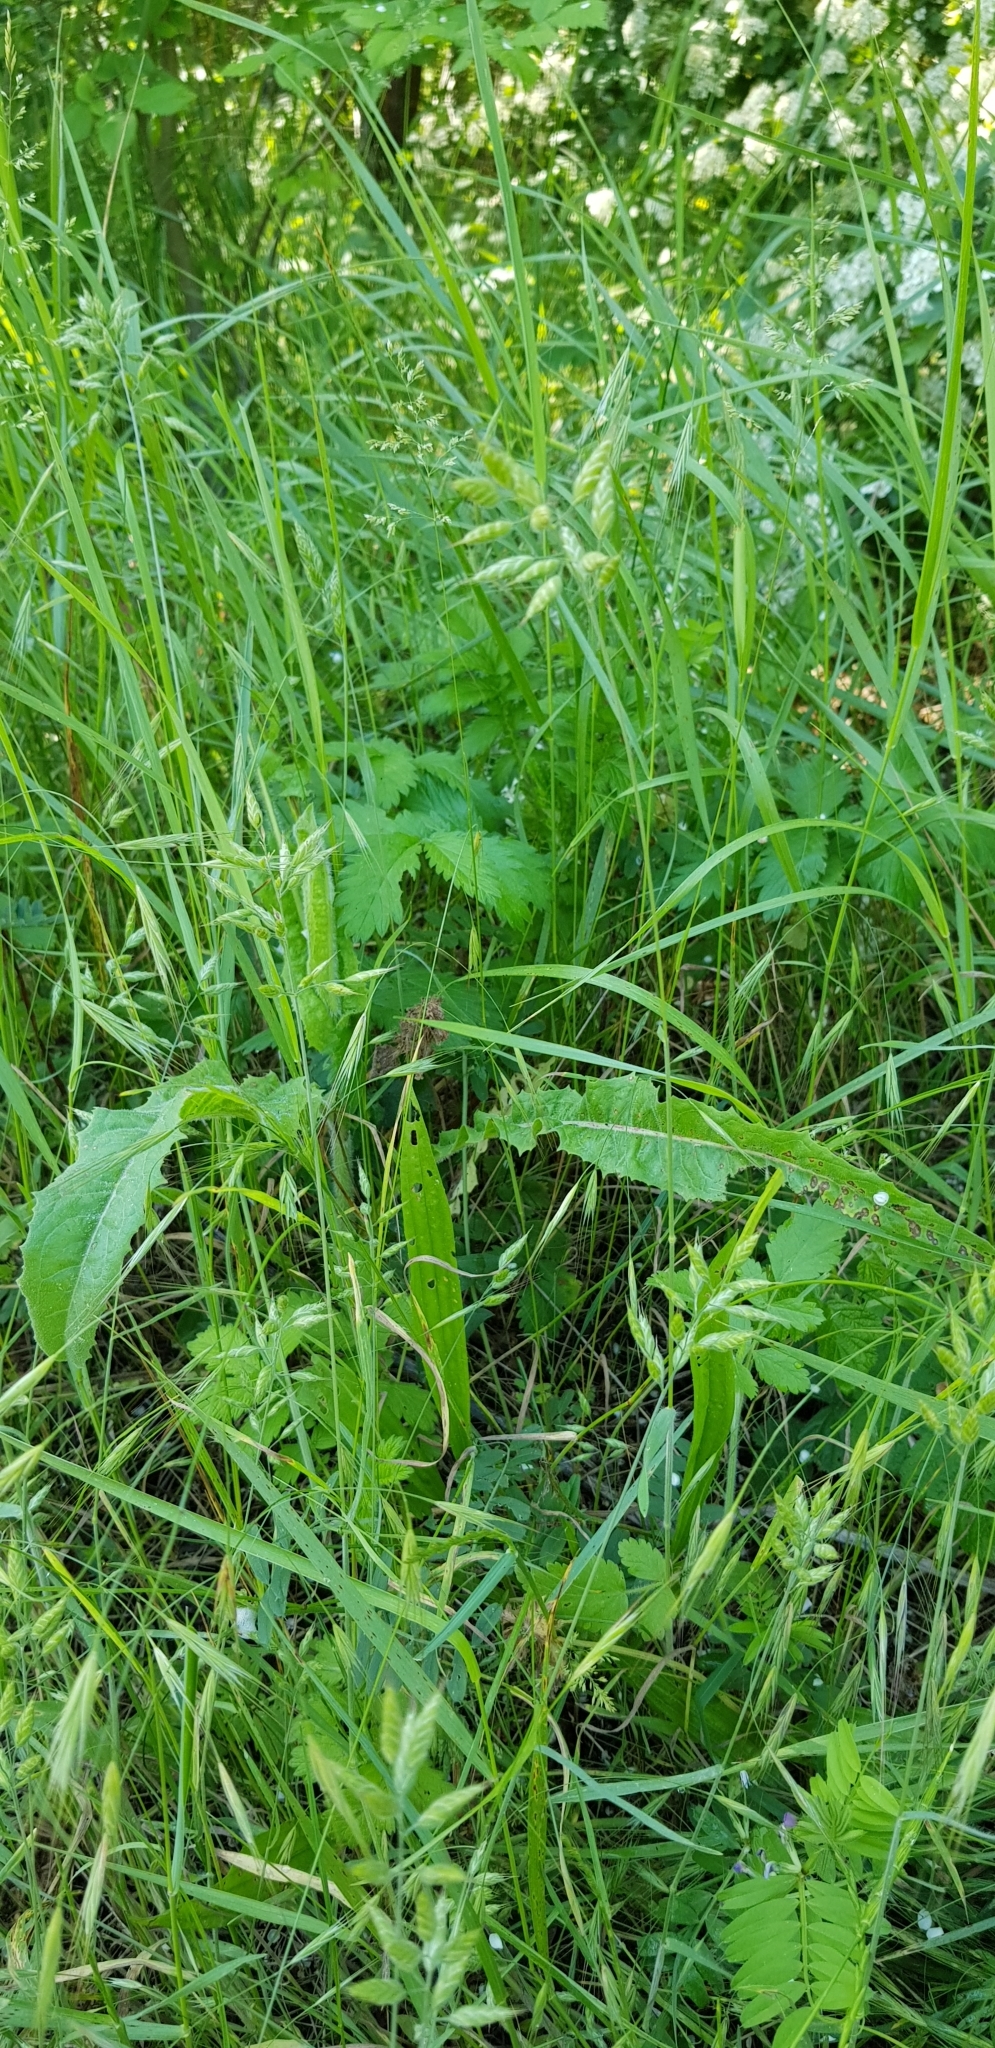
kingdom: Plantae
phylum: Tracheophyta
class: Liliopsida
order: Poales
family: Poaceae
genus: Bromus
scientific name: Bromus hordeaceus
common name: Soft brome
